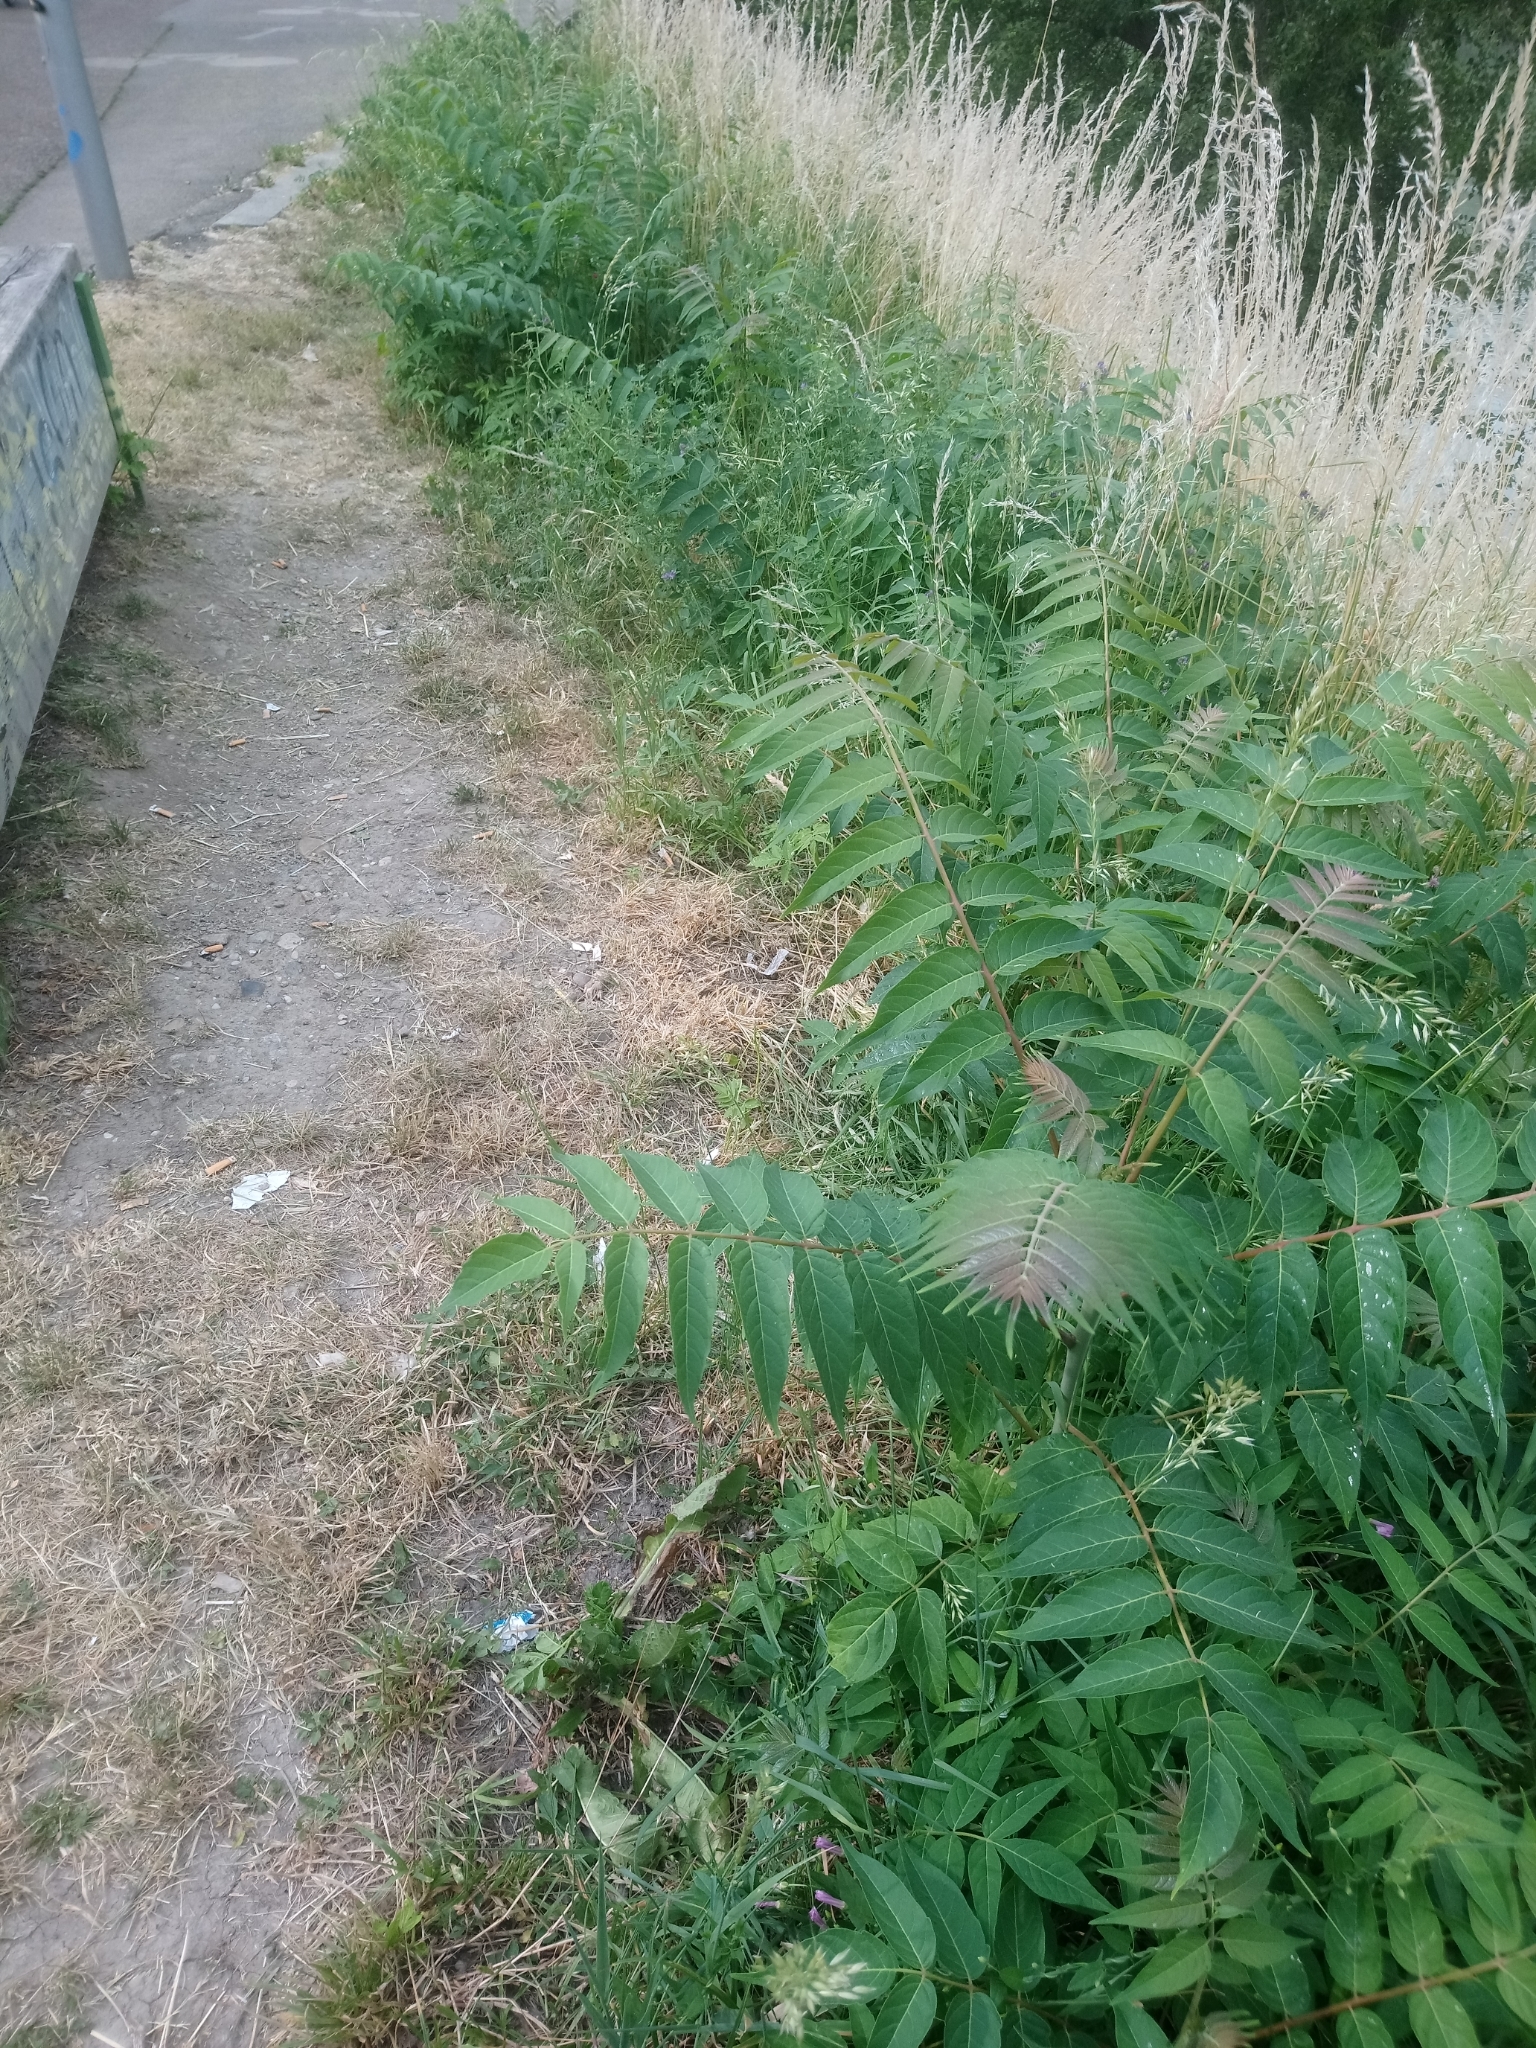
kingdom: Plantae
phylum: Tracheophyta
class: Magnoliopsida
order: Sapindales
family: Simaroubaceae
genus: Ailanthus
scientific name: Ailanthus altissima
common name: Tree-of-heaven
